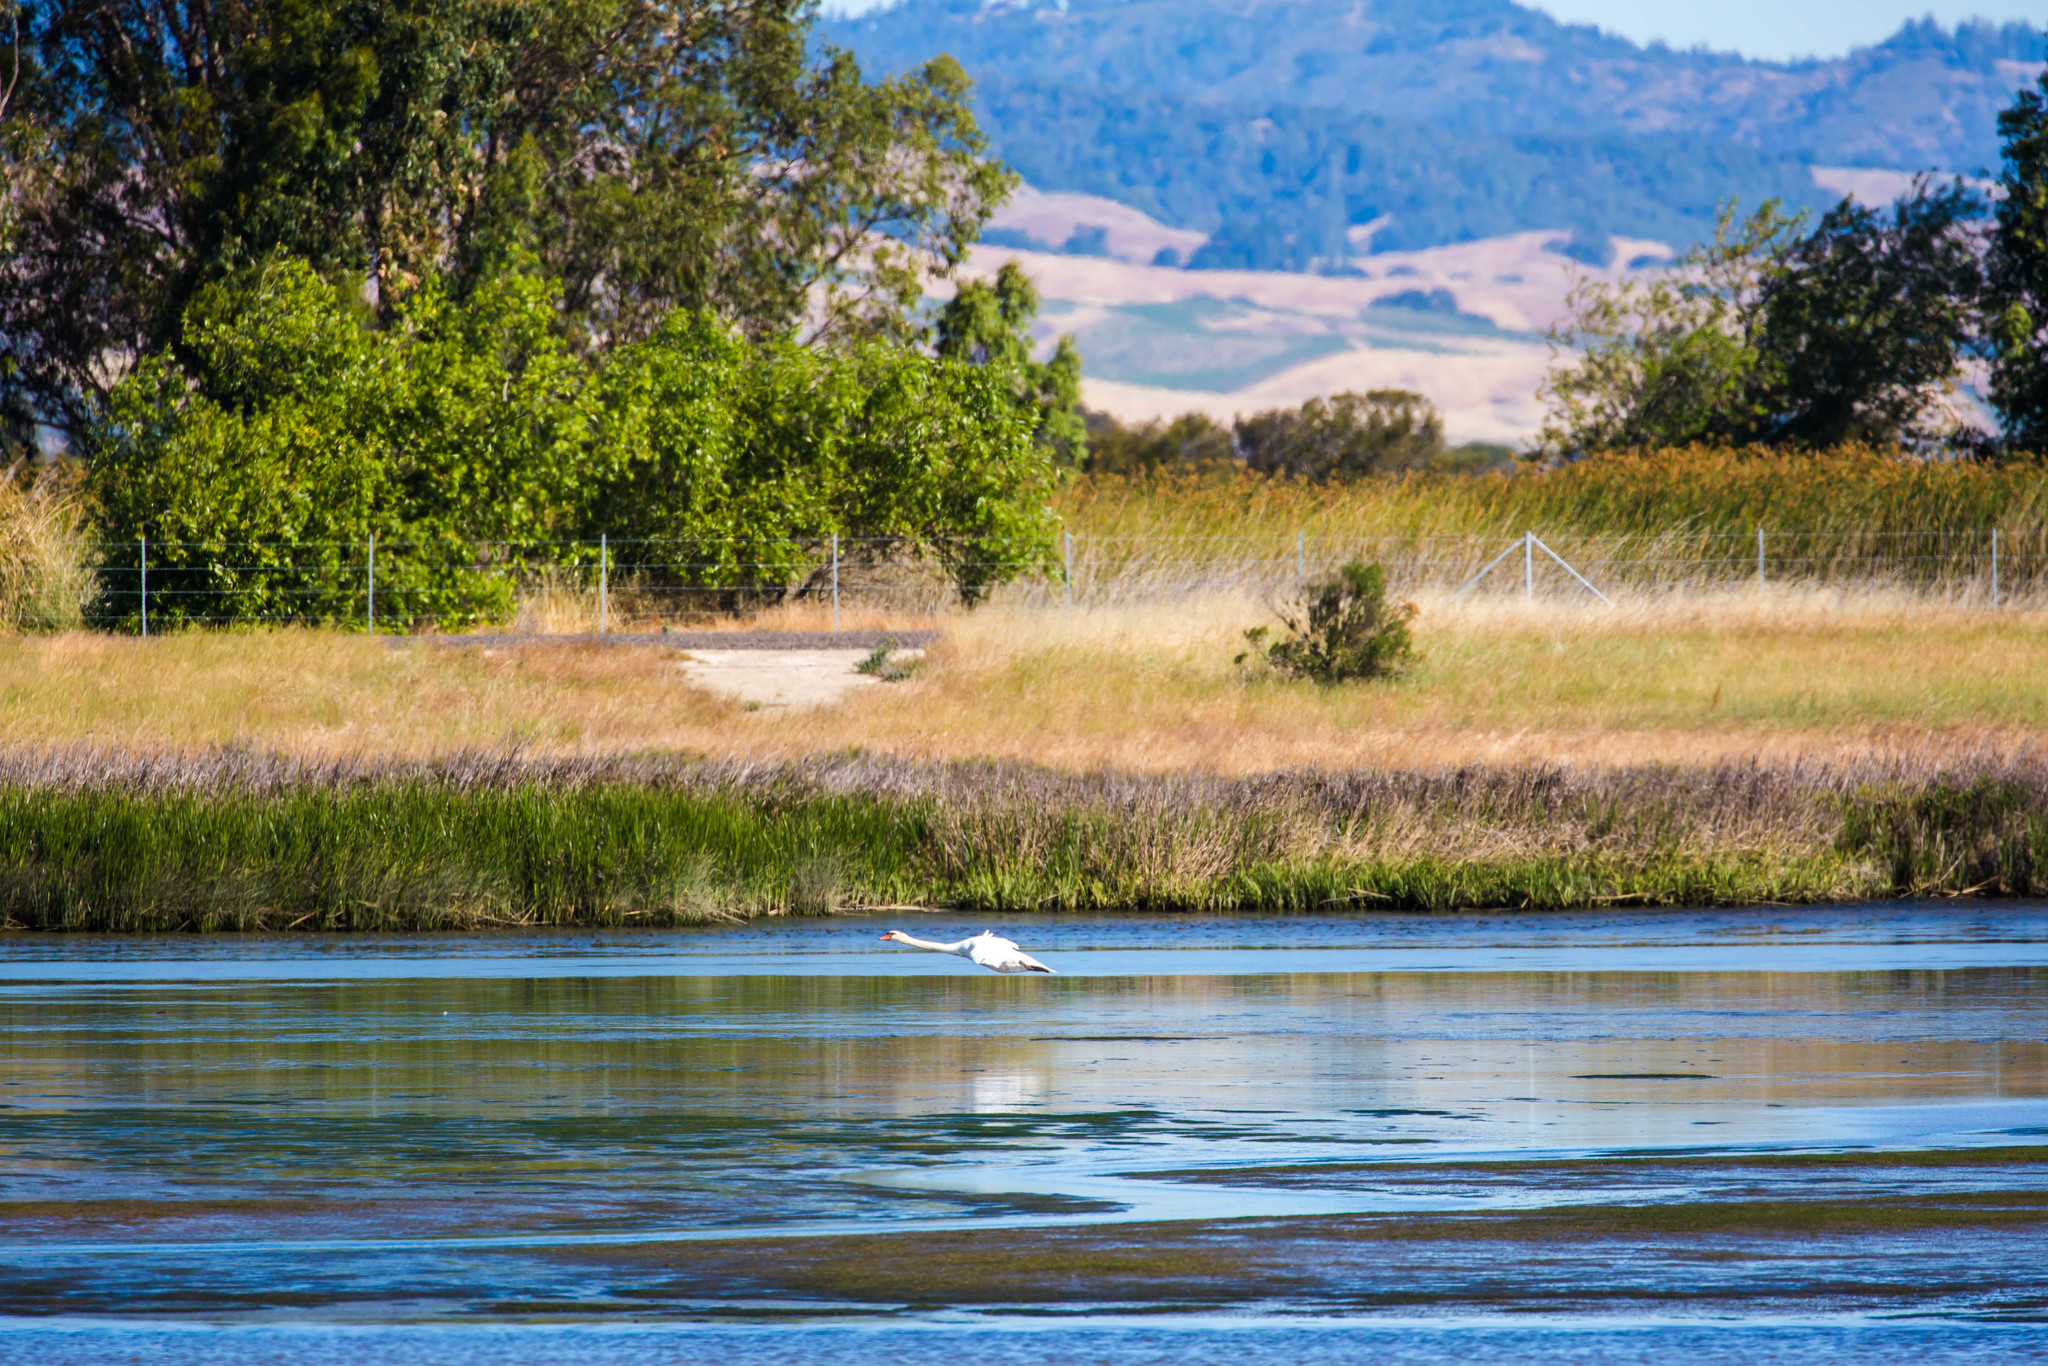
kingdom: Animalia
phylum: Chordata
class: Aves
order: Anseriformes
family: Anatidae
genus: Cygnus
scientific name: Cygnus olor
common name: Mute swan
